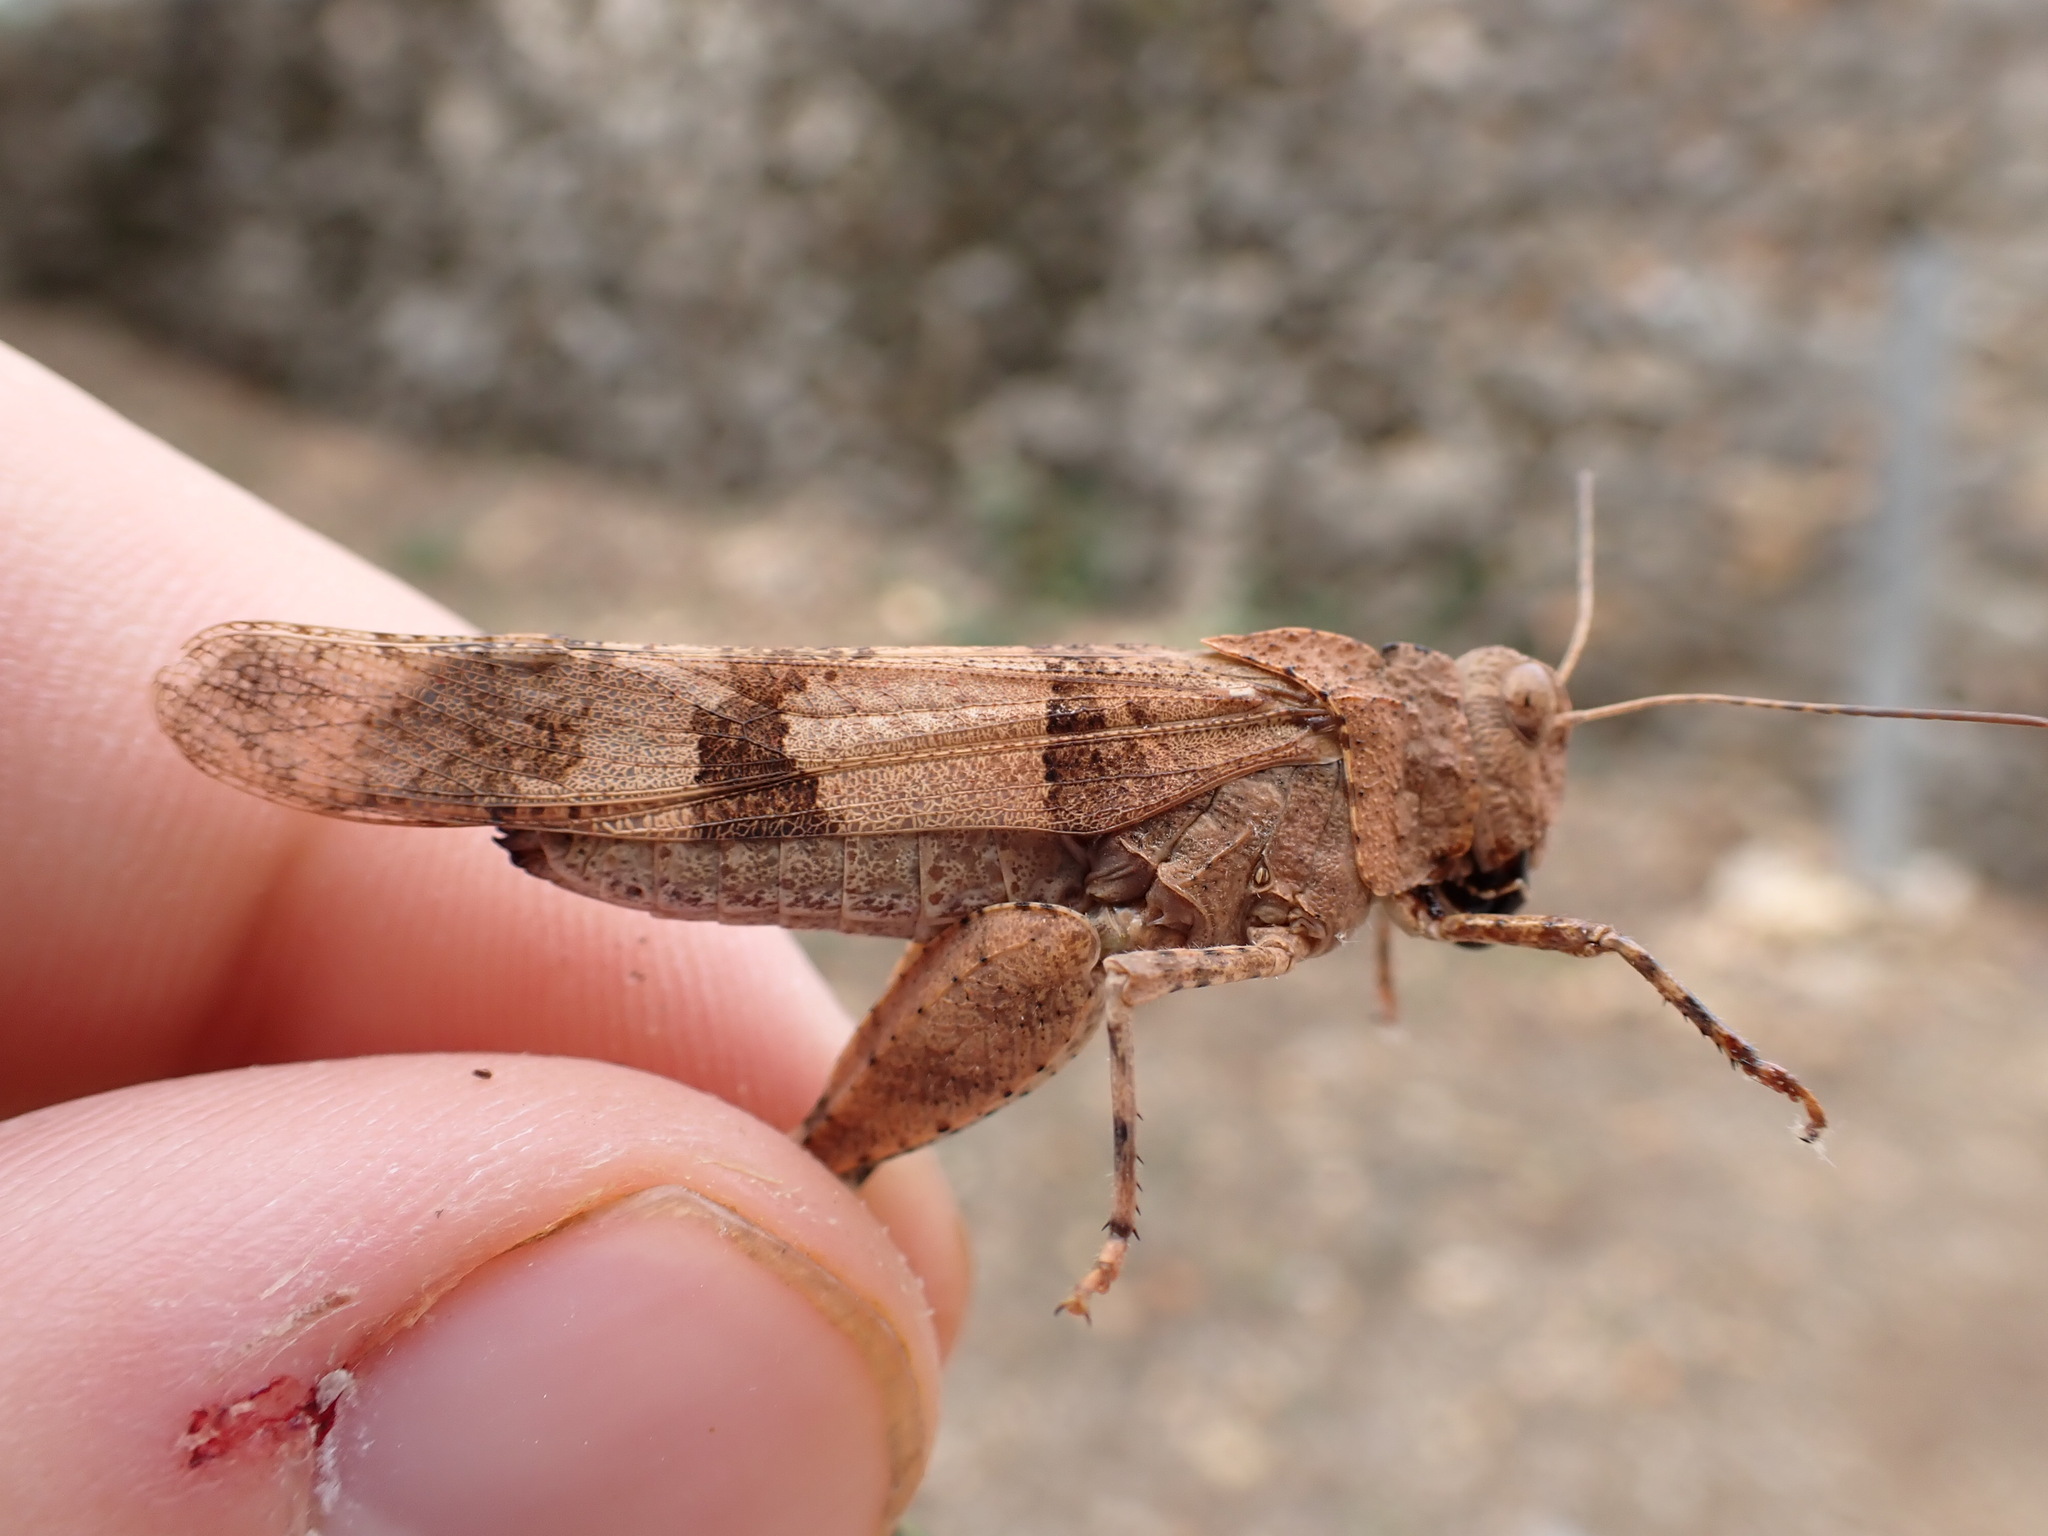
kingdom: Animalia
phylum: Arthropoda
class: Insecta
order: Orthoptera
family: Acrididae
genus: Oedipoda
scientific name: Oedipoda caerulescens
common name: Blue-winged grasshopper
